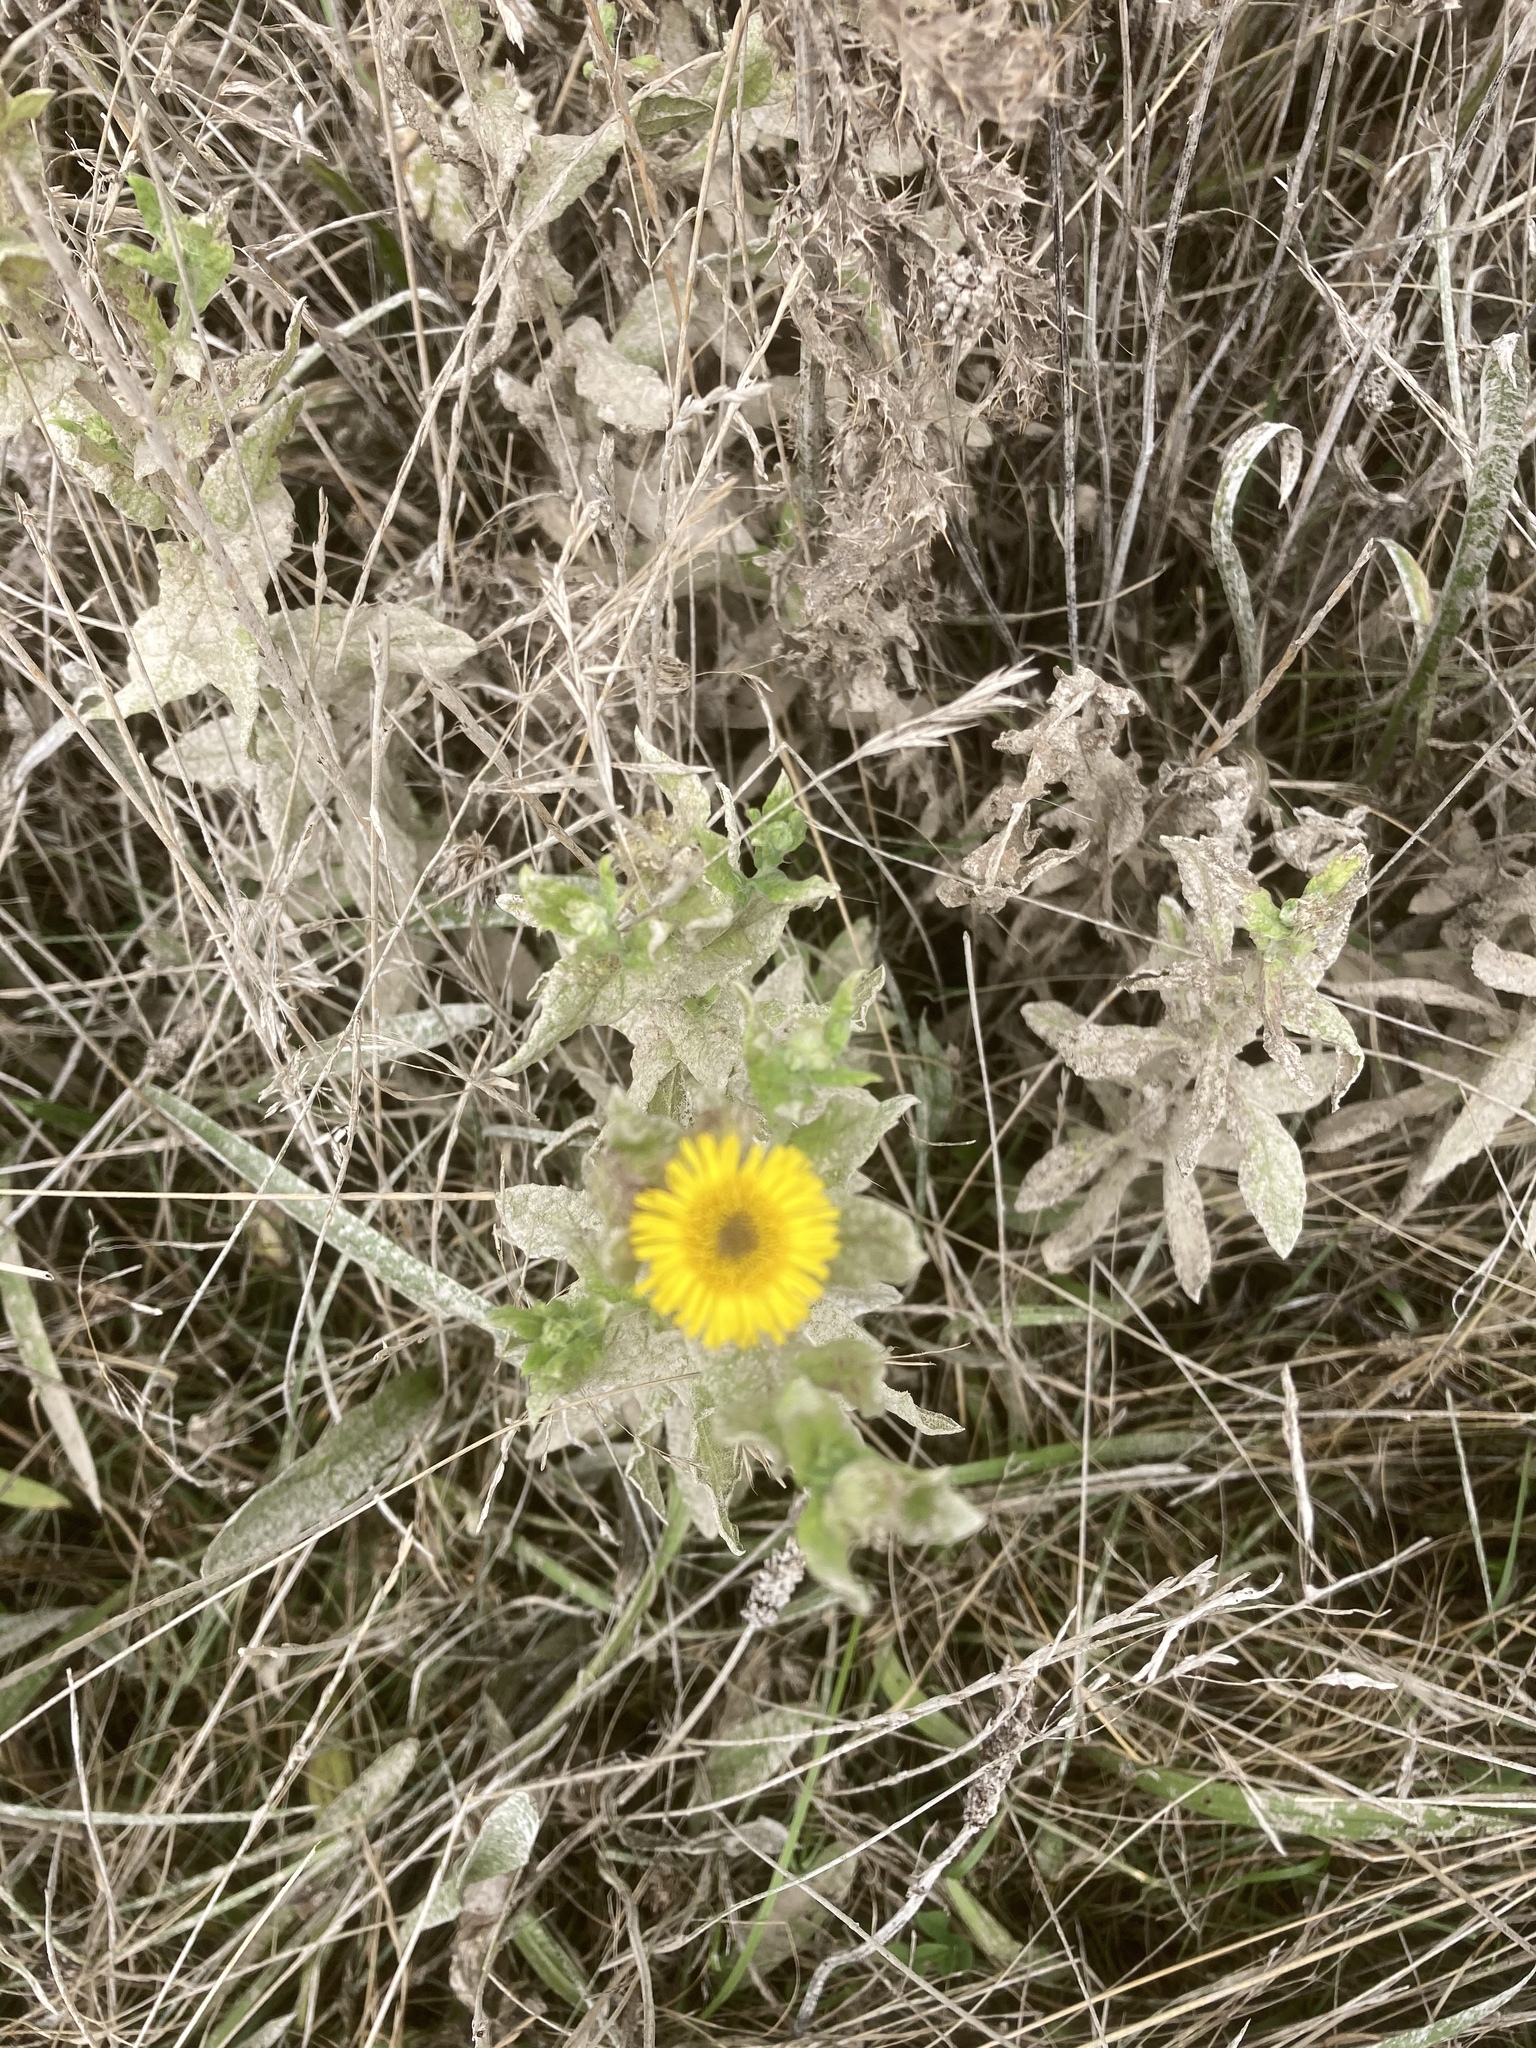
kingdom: Plantae
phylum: Tracheophyta
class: Magnoliopsida
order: Asterales
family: Asteraceae
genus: Pulicaria
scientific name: Pulicaria dysenterica
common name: Common fleabane
